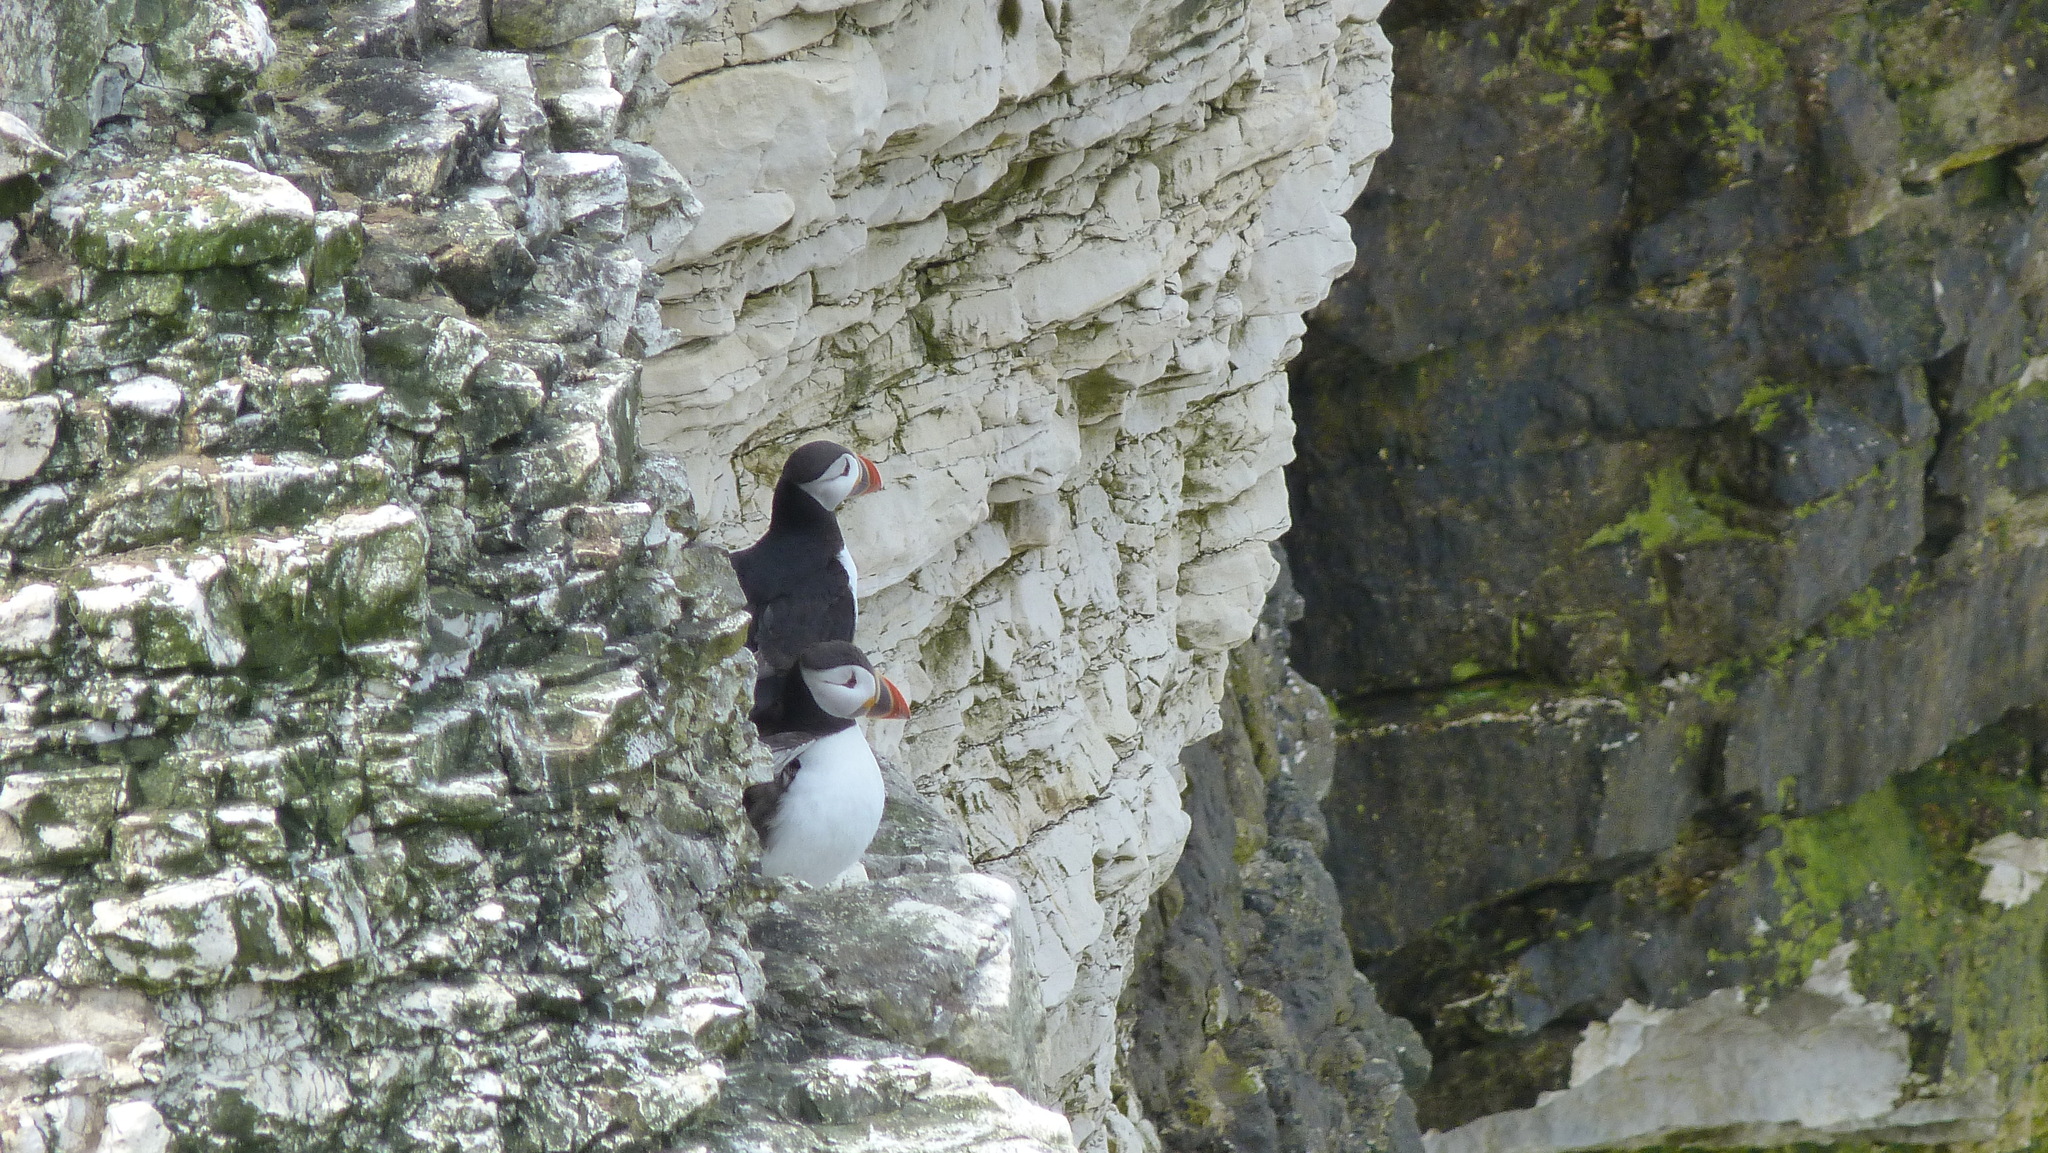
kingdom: Animalia
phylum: Chordata
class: Aves
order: Charadriiformes
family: Alcidae
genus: Fratercula
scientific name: Fratercula arctica
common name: Atlantic puffin
